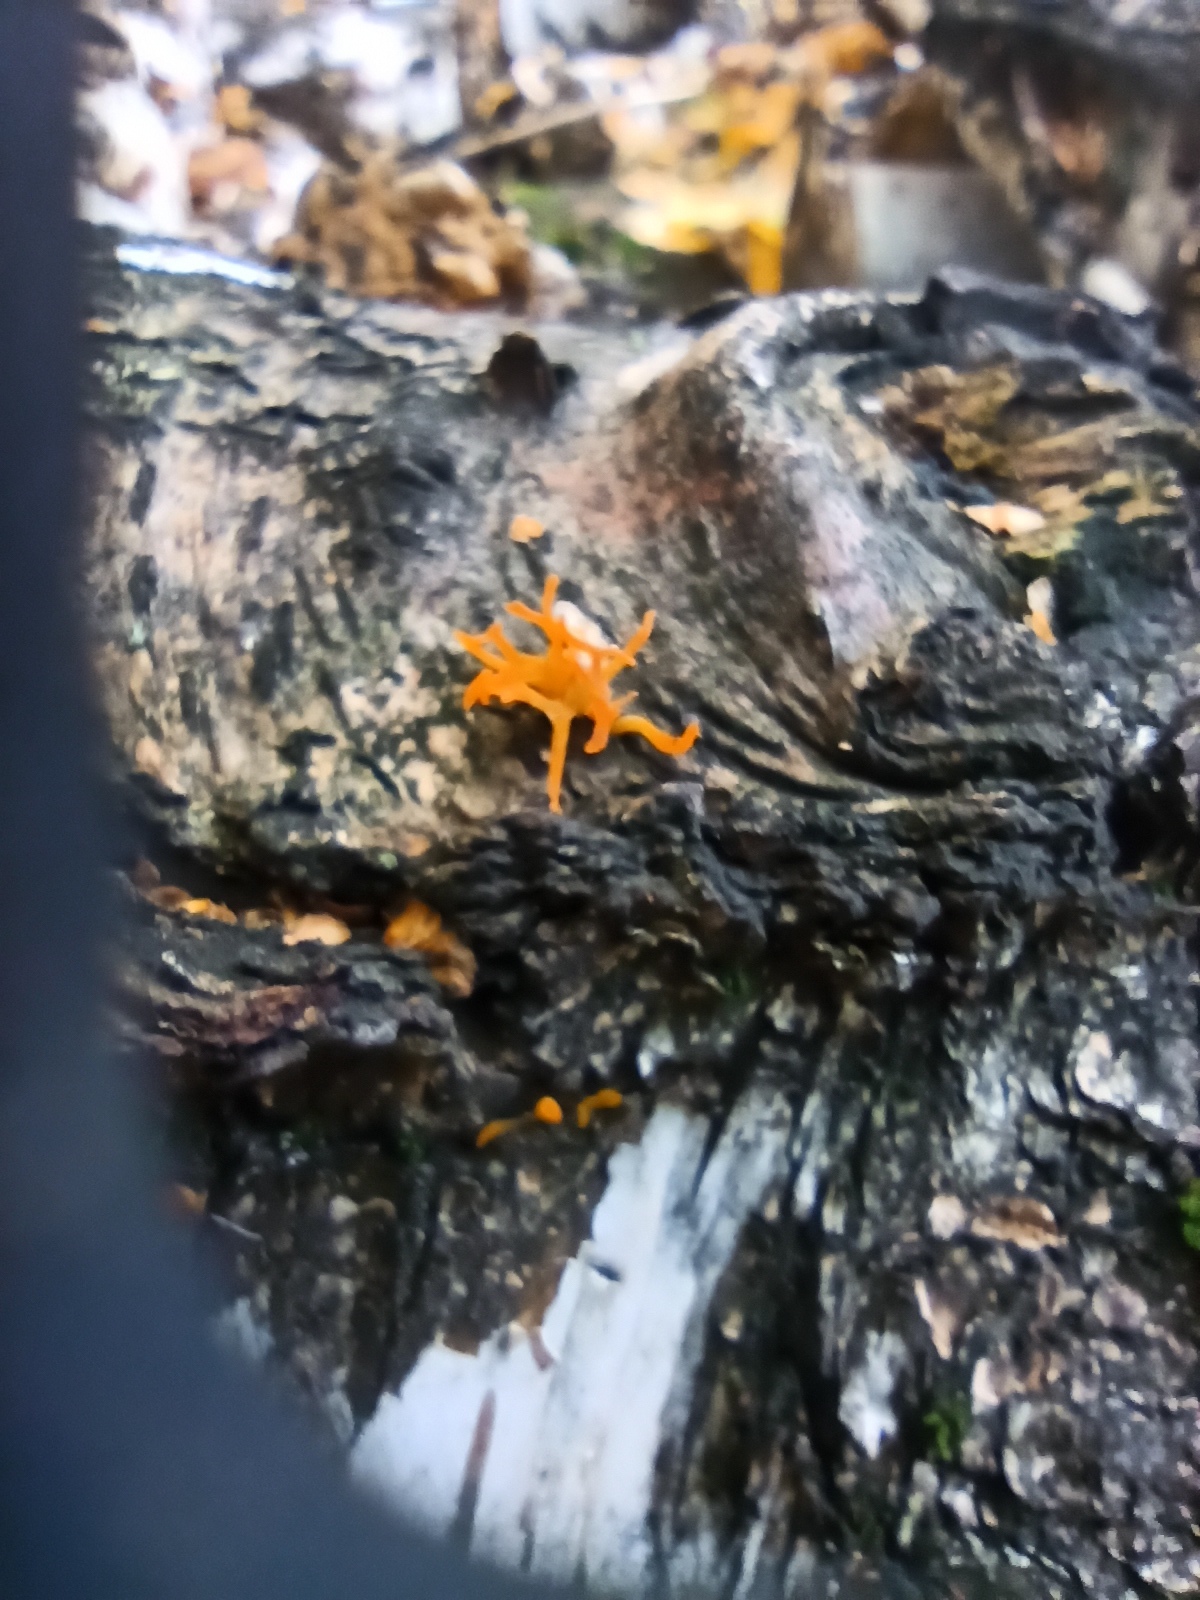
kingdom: Fungi
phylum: Basidiomycota
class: Dacrymycetes
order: Dacrymycetales
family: Dacrymycetaceae
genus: Calocera
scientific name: Calocera furcata
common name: Forked stagshorn
